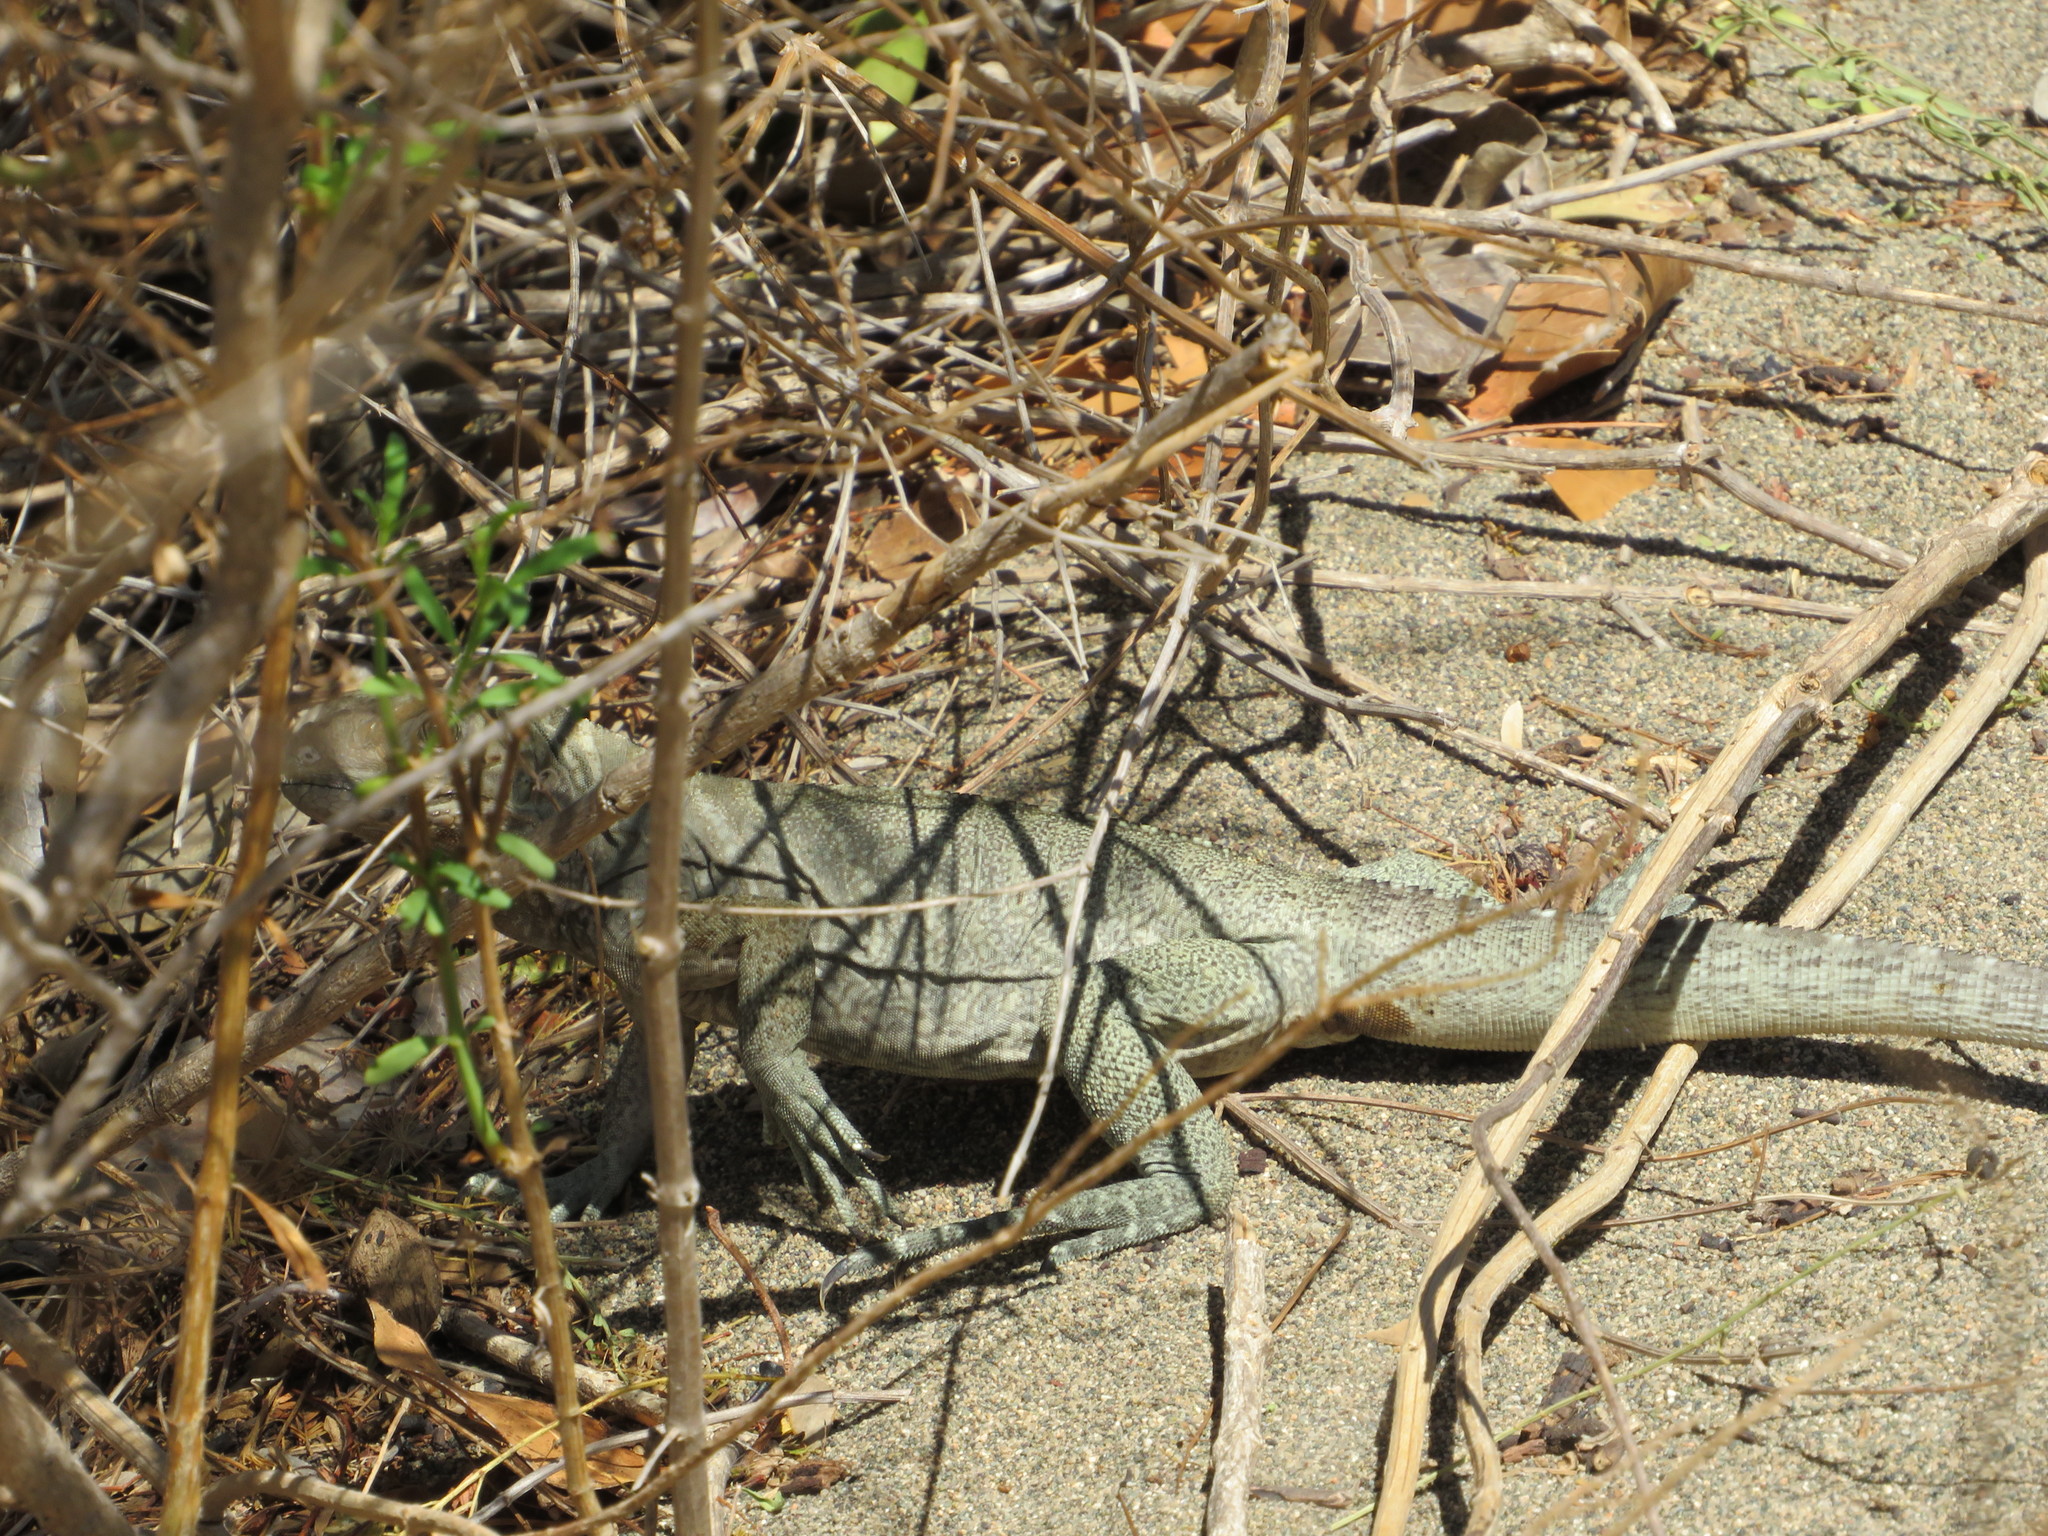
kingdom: Animalia
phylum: Chordata
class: Squamata
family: Iguanidae
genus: Cyclura
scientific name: Cyclura cornuta
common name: Hispaniolan rhinoceros iguana
